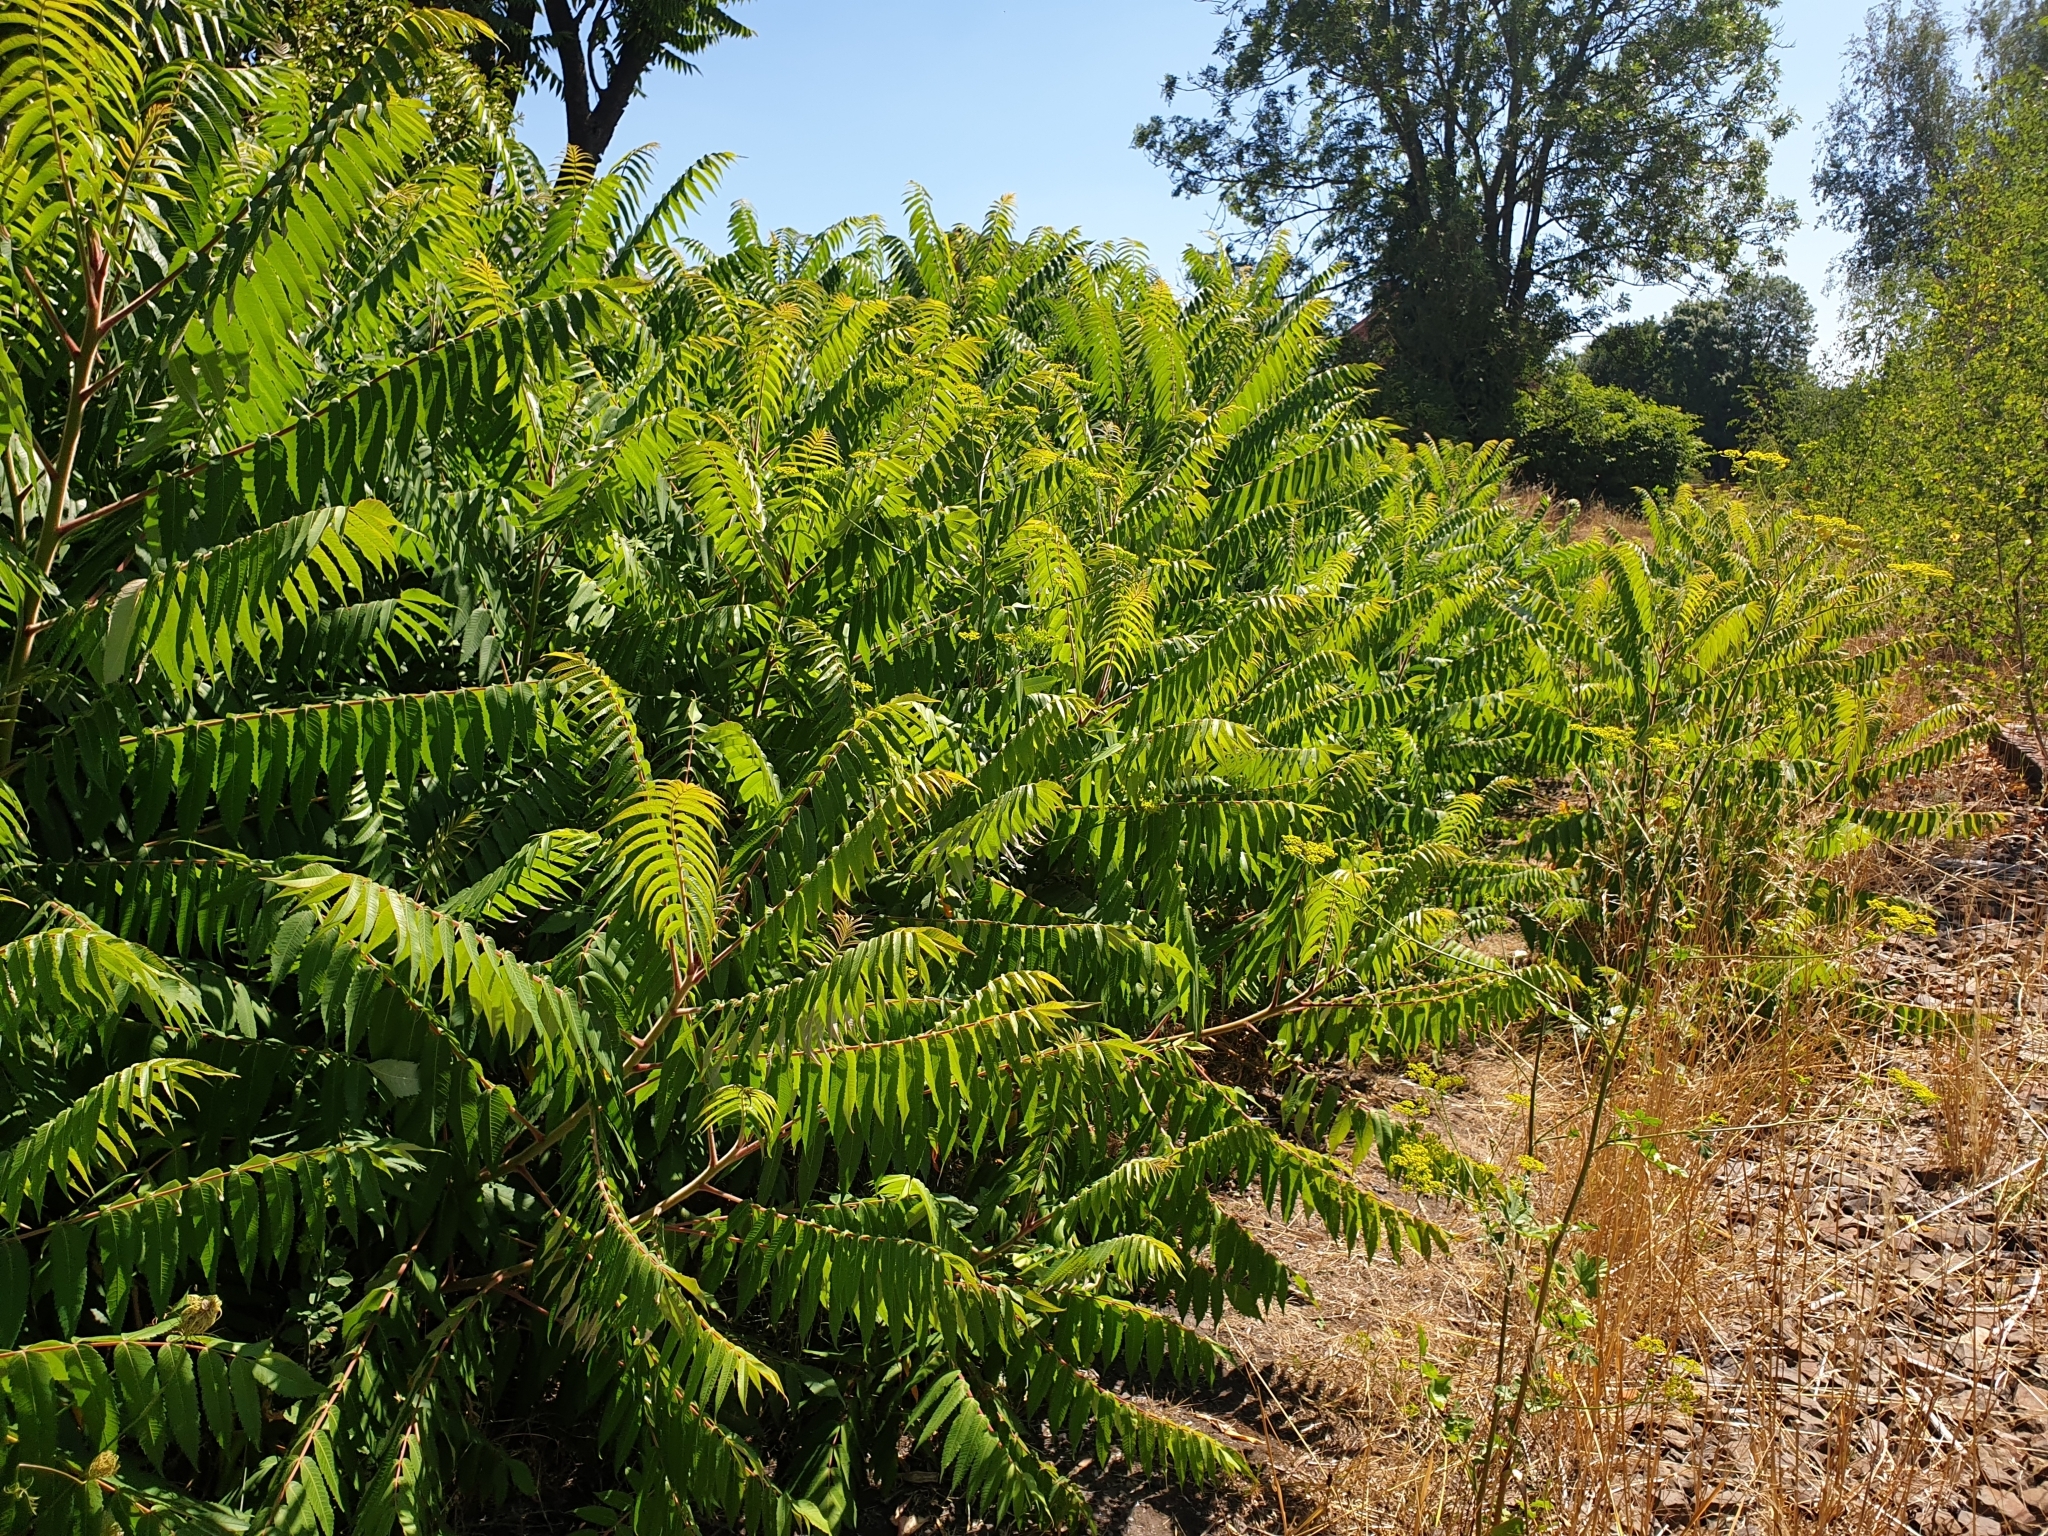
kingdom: Plantae
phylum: Tracheophyta
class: Magnoliopsida
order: Sapindales
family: Anacardiaceae
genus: Rhus
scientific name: Rhus typhina
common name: Staghorn sumac
